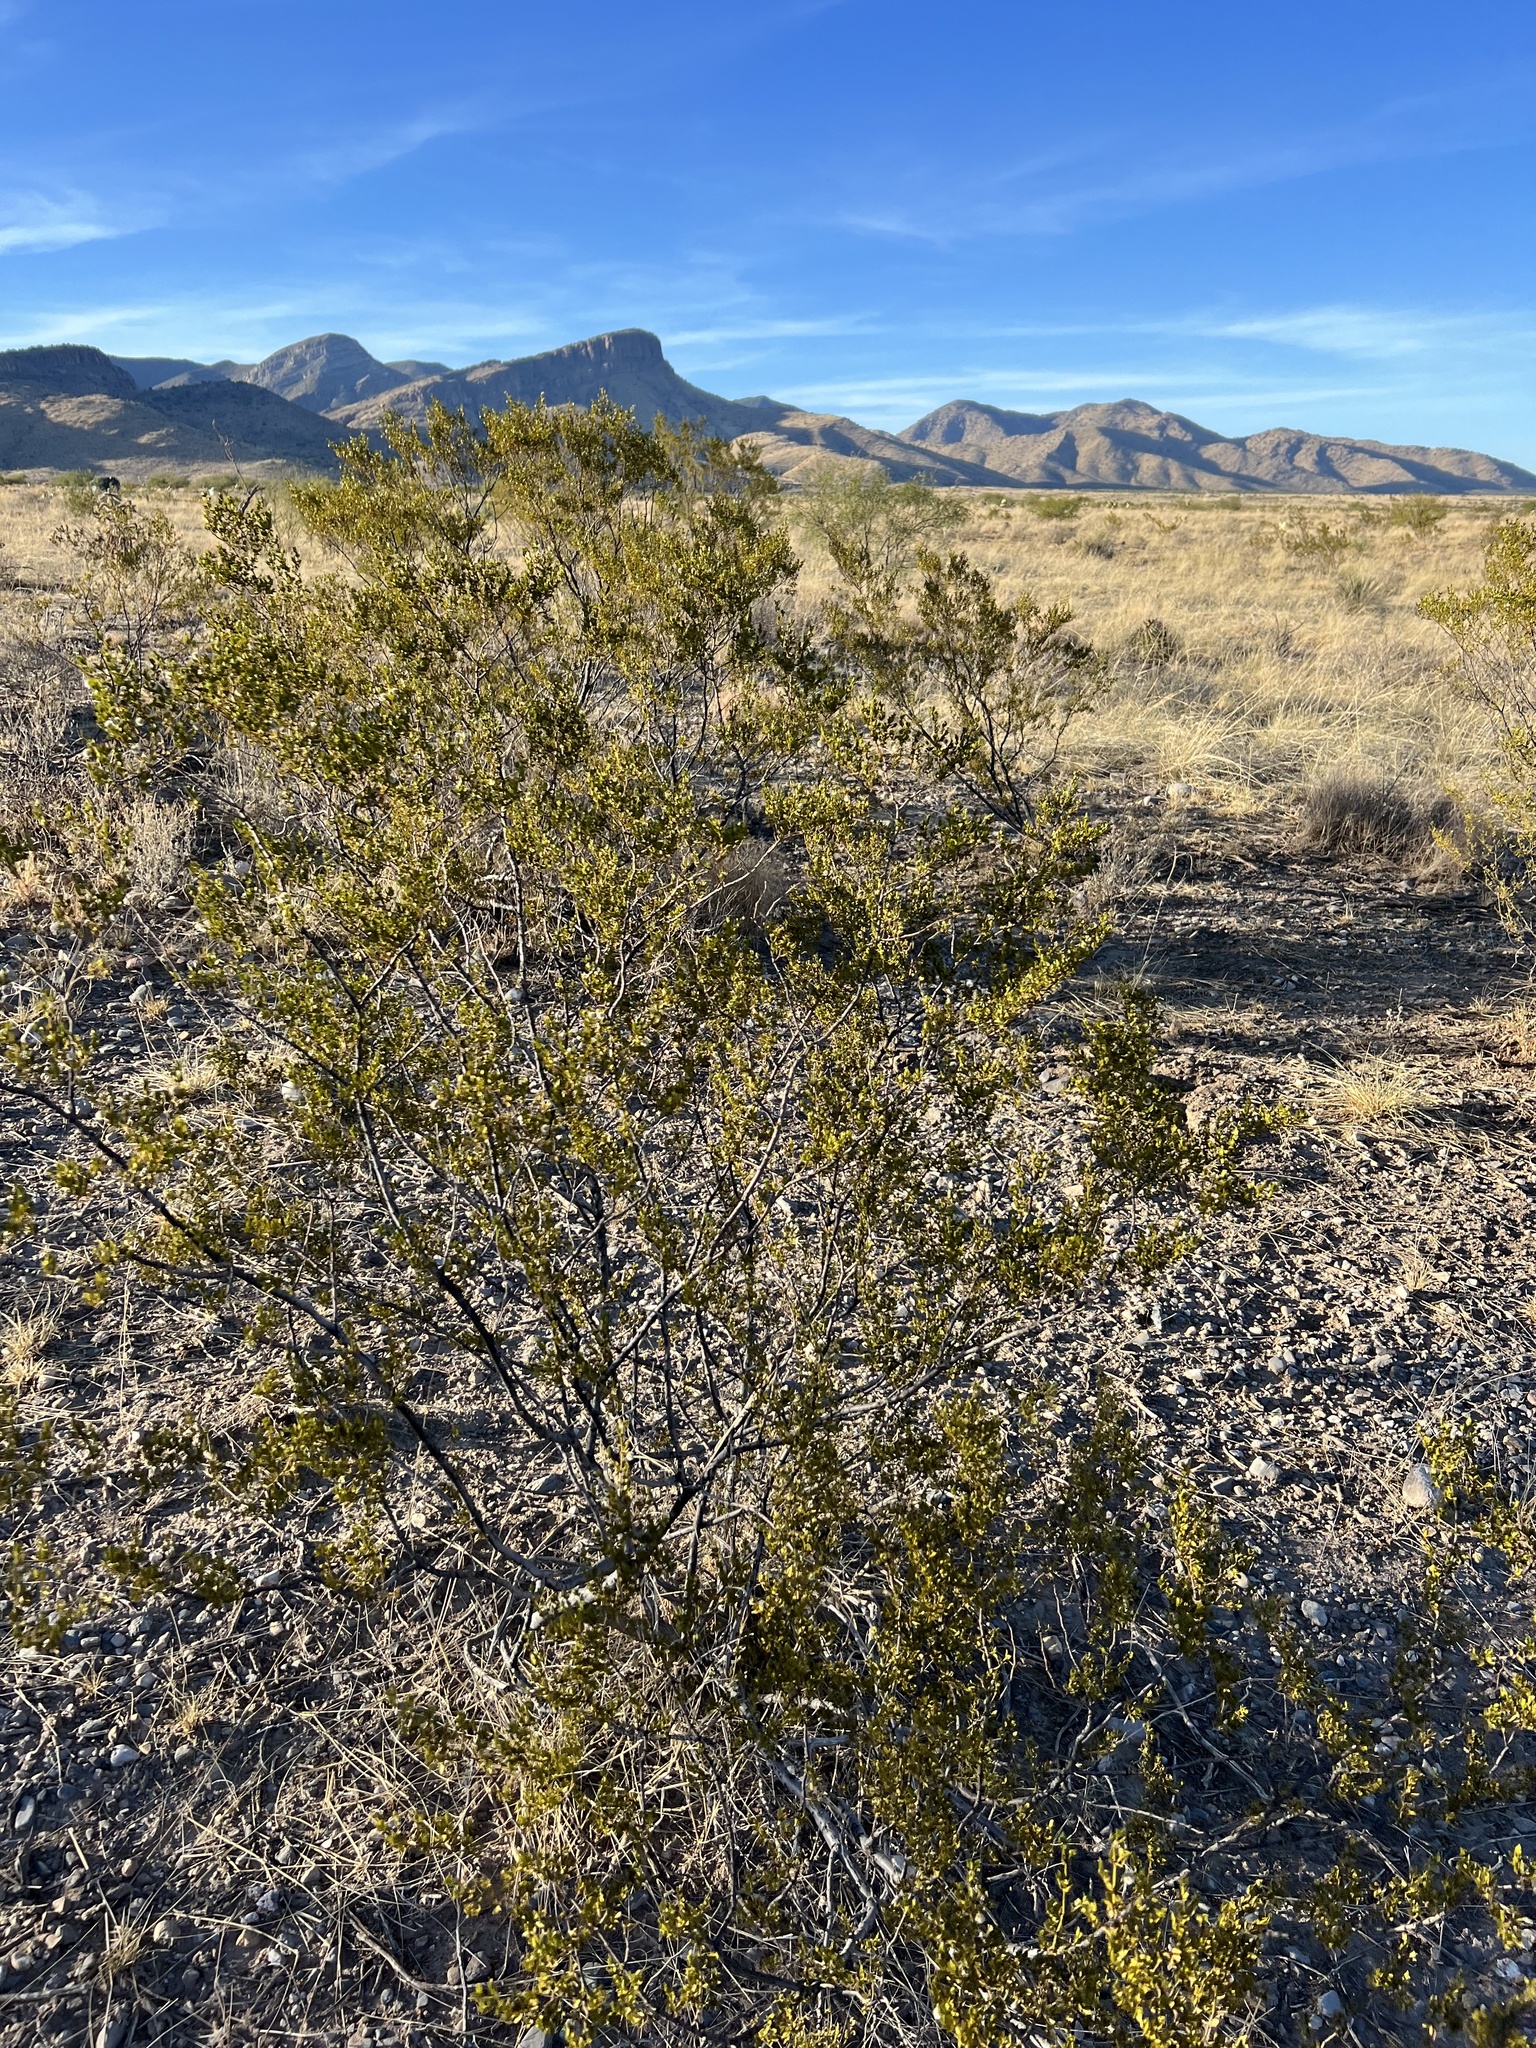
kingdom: Plantae
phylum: Tracheophyta
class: Magnoliopsida
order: Zygophyllales
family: Zygophyllaceae
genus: Larrea
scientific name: Larrea tridentata
